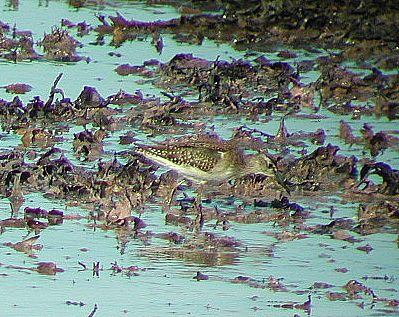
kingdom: Animalia
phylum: Chordata
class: Aves
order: Charadriiformes
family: Scolopacidae
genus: Tringa
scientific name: Tringa glareola
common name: Wood sandpiper
